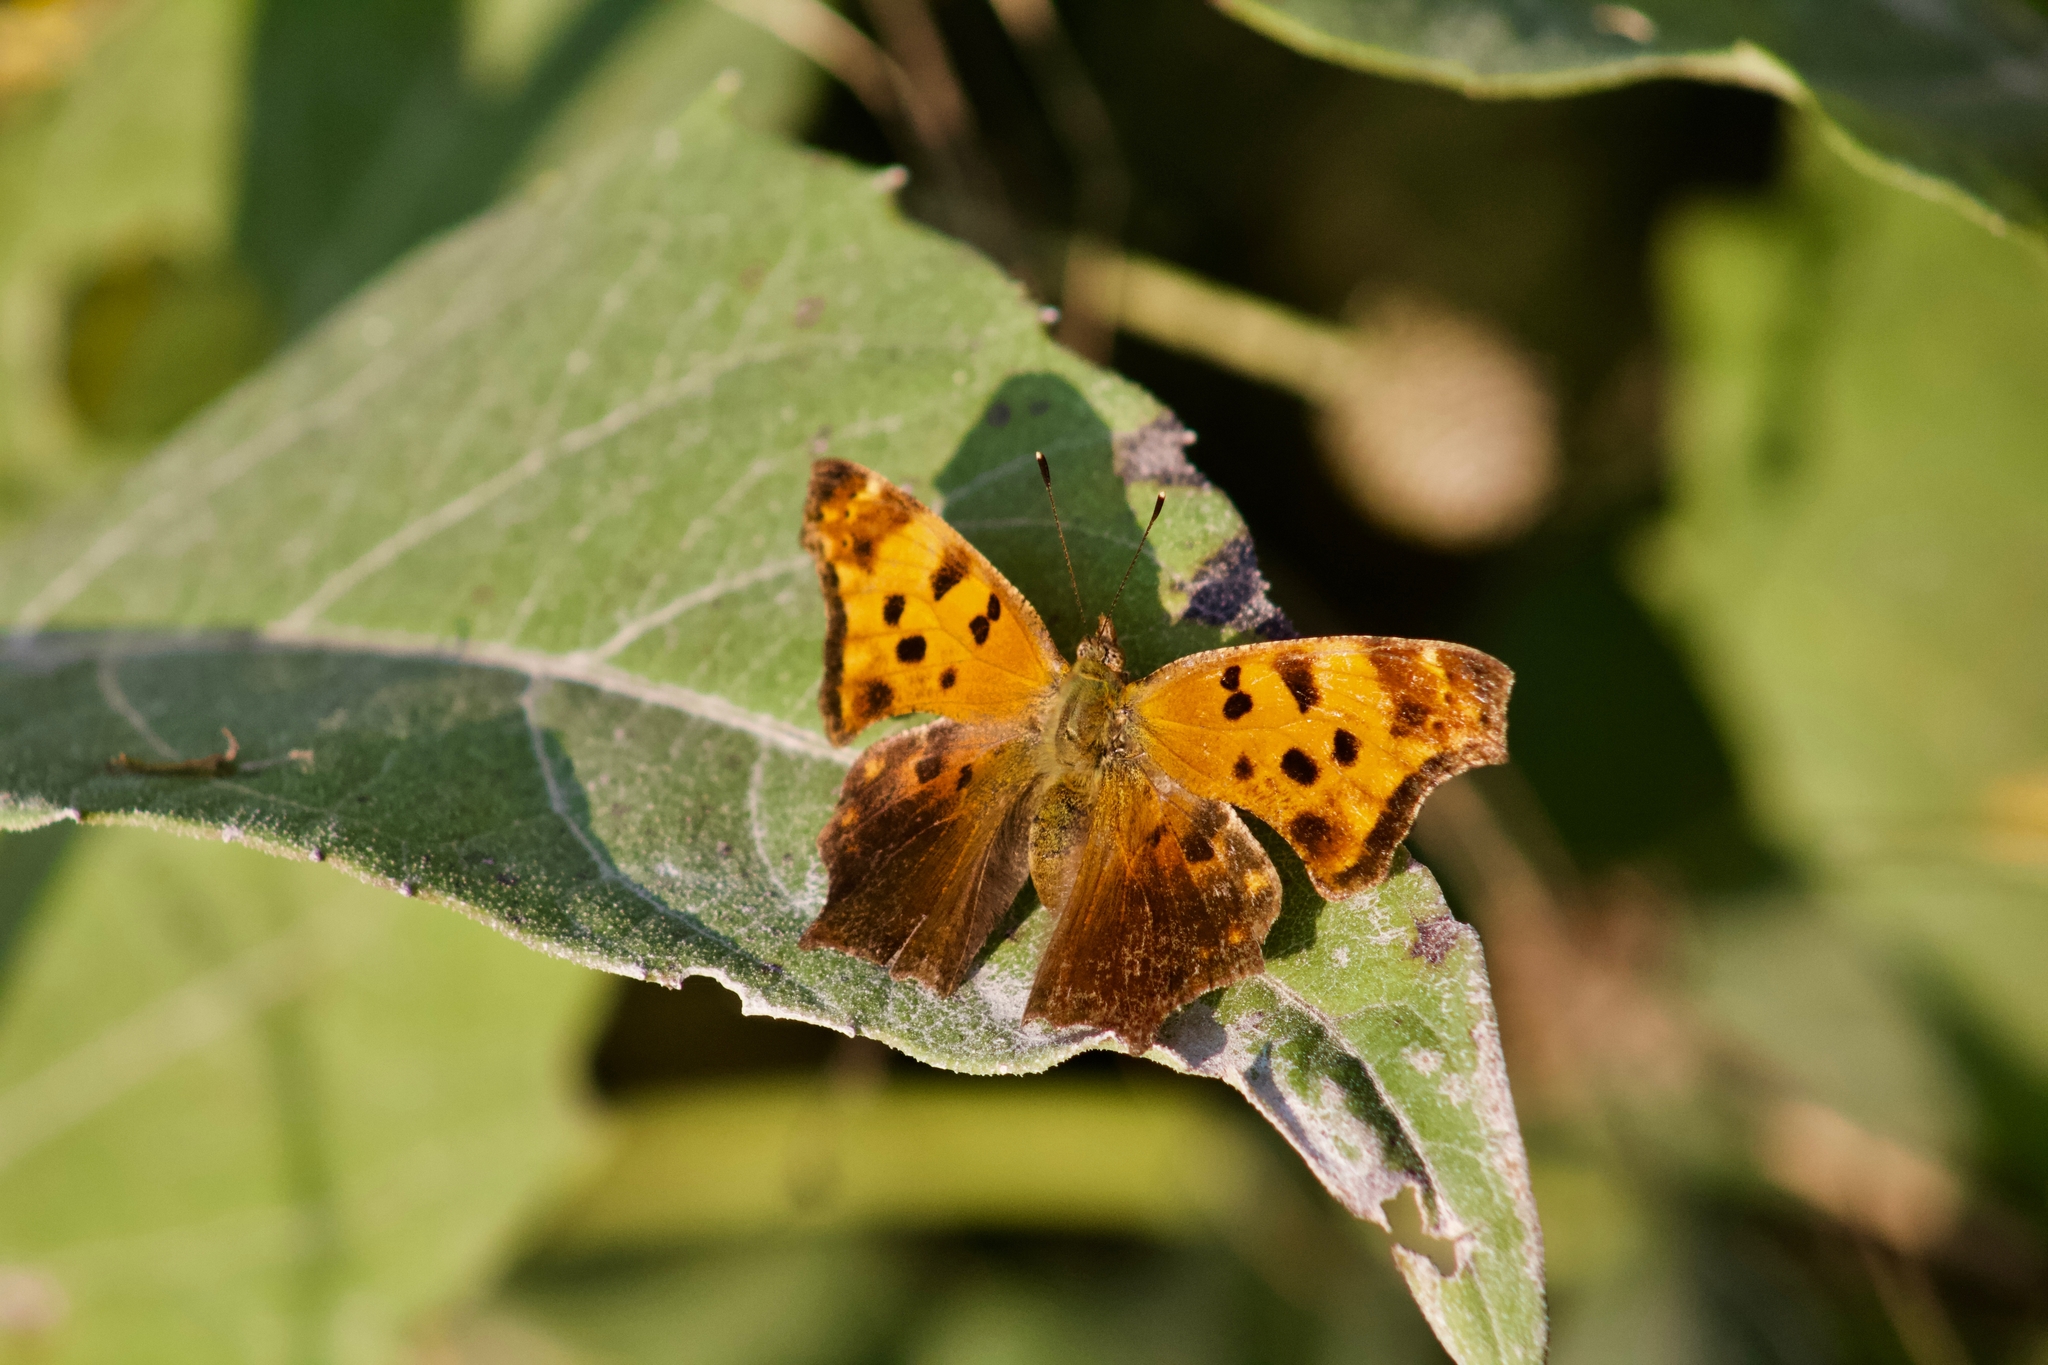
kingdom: Animalia
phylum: Arthropoda
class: Insecta
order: Lepidoptera
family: Nymphalidae
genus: Polygonia
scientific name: Polygonia comma
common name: Eastern comma
